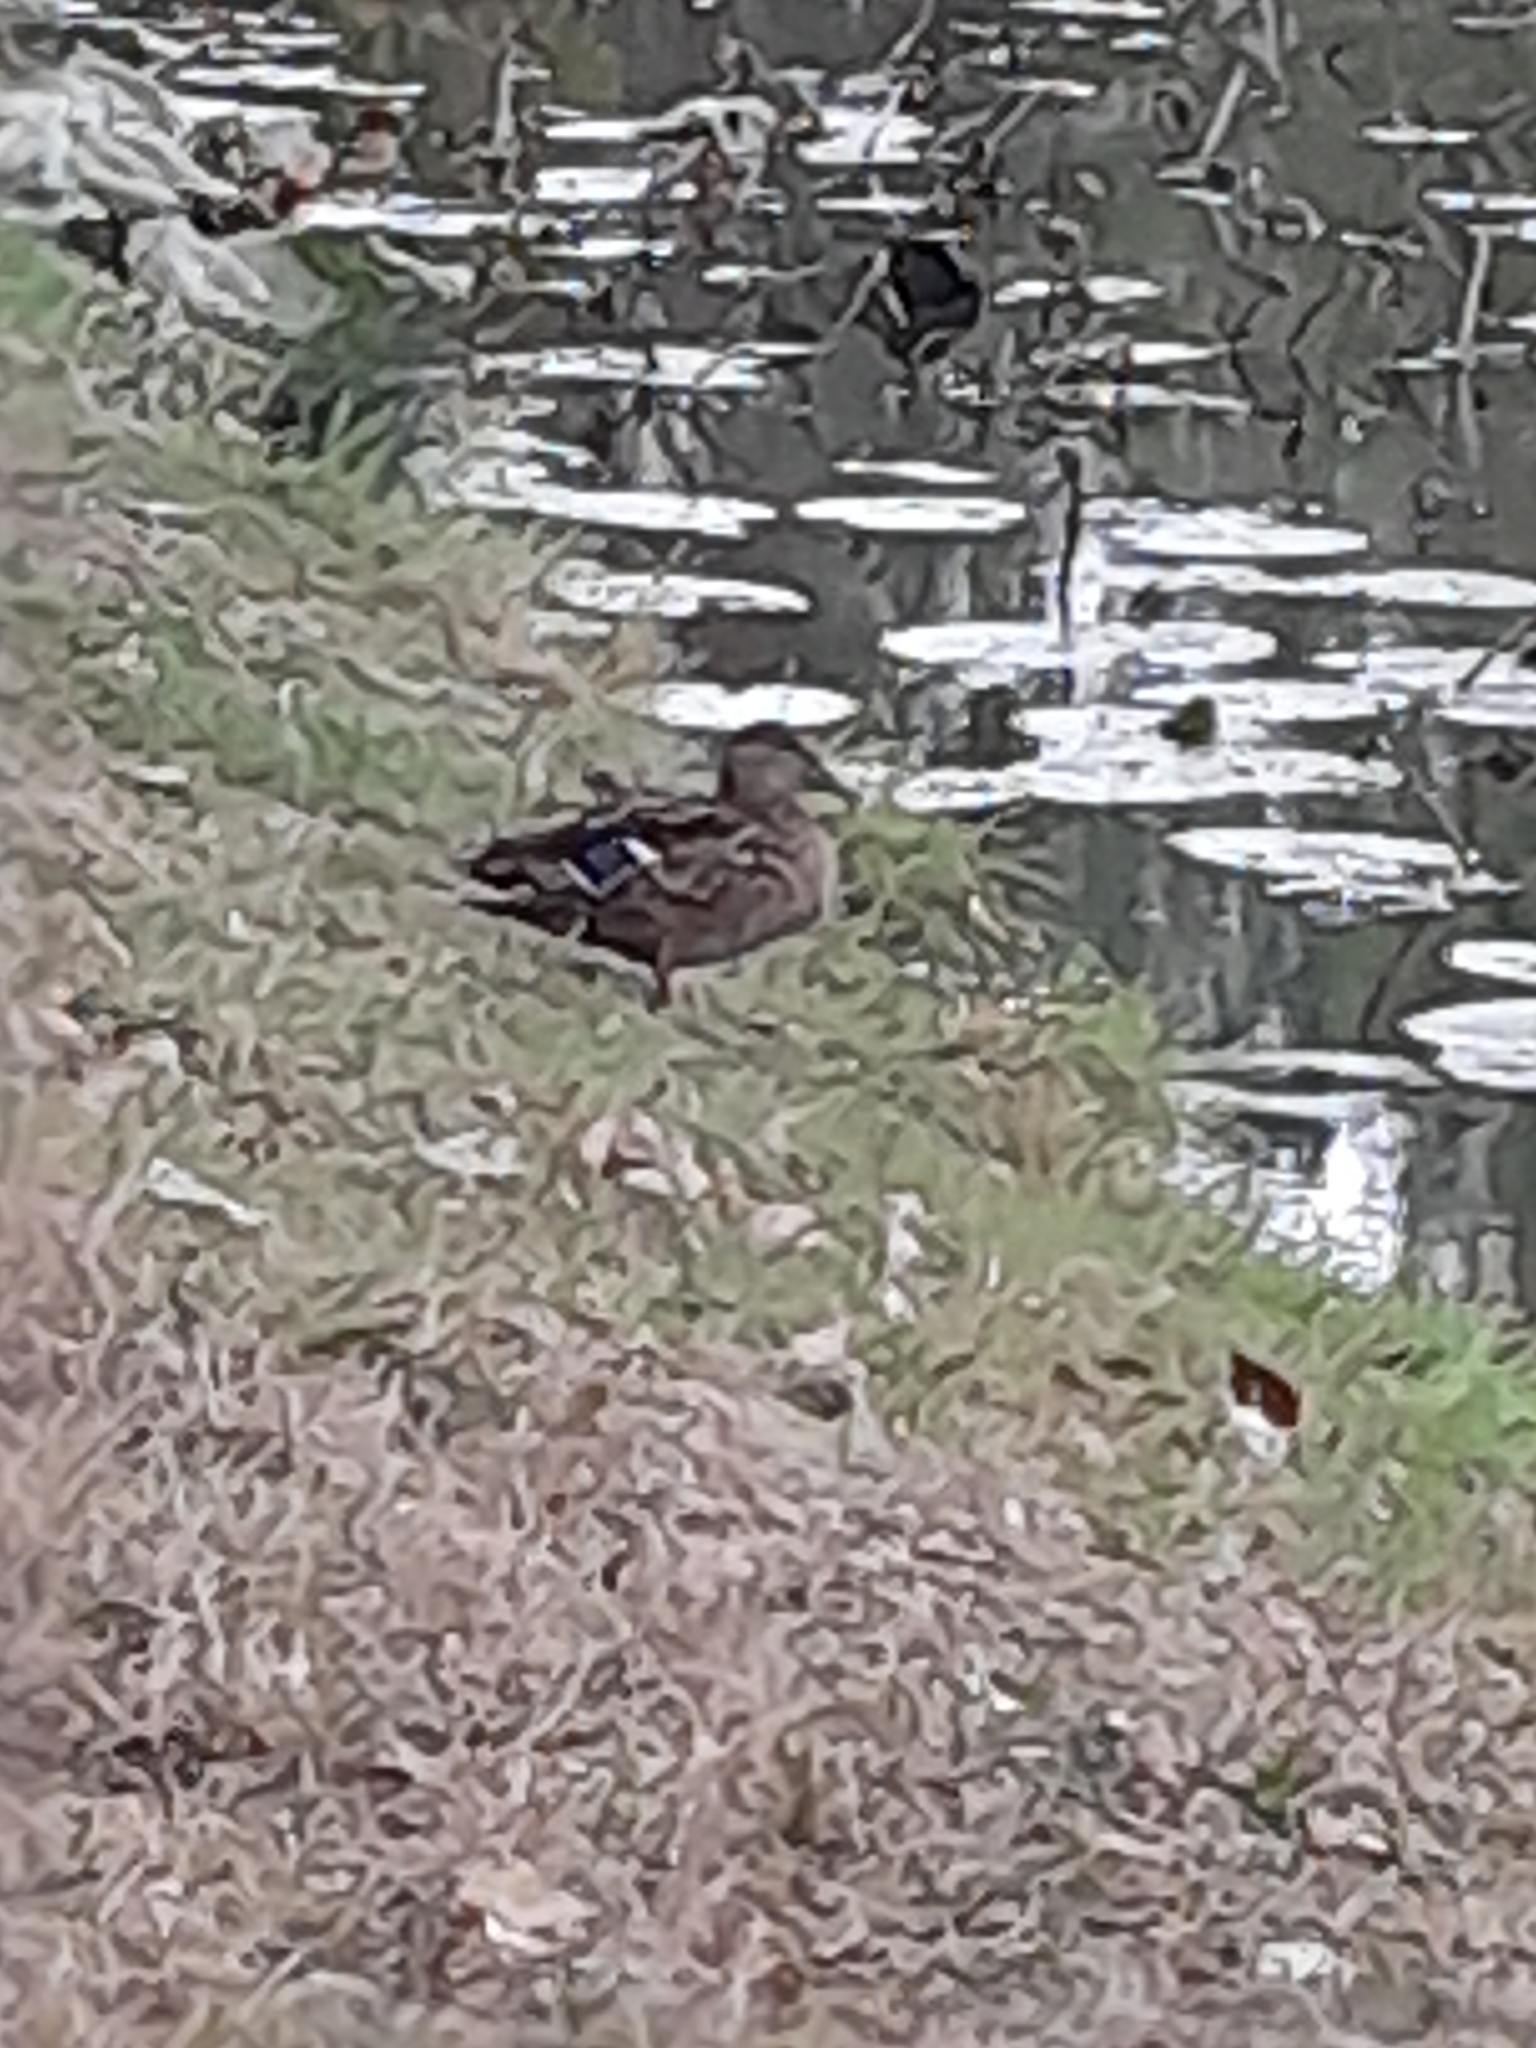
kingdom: Animalia
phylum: Chordata
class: Aves
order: Anseriformes
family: Anatidae
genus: Anas
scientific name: Anas platyrhynchos
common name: Mallard
